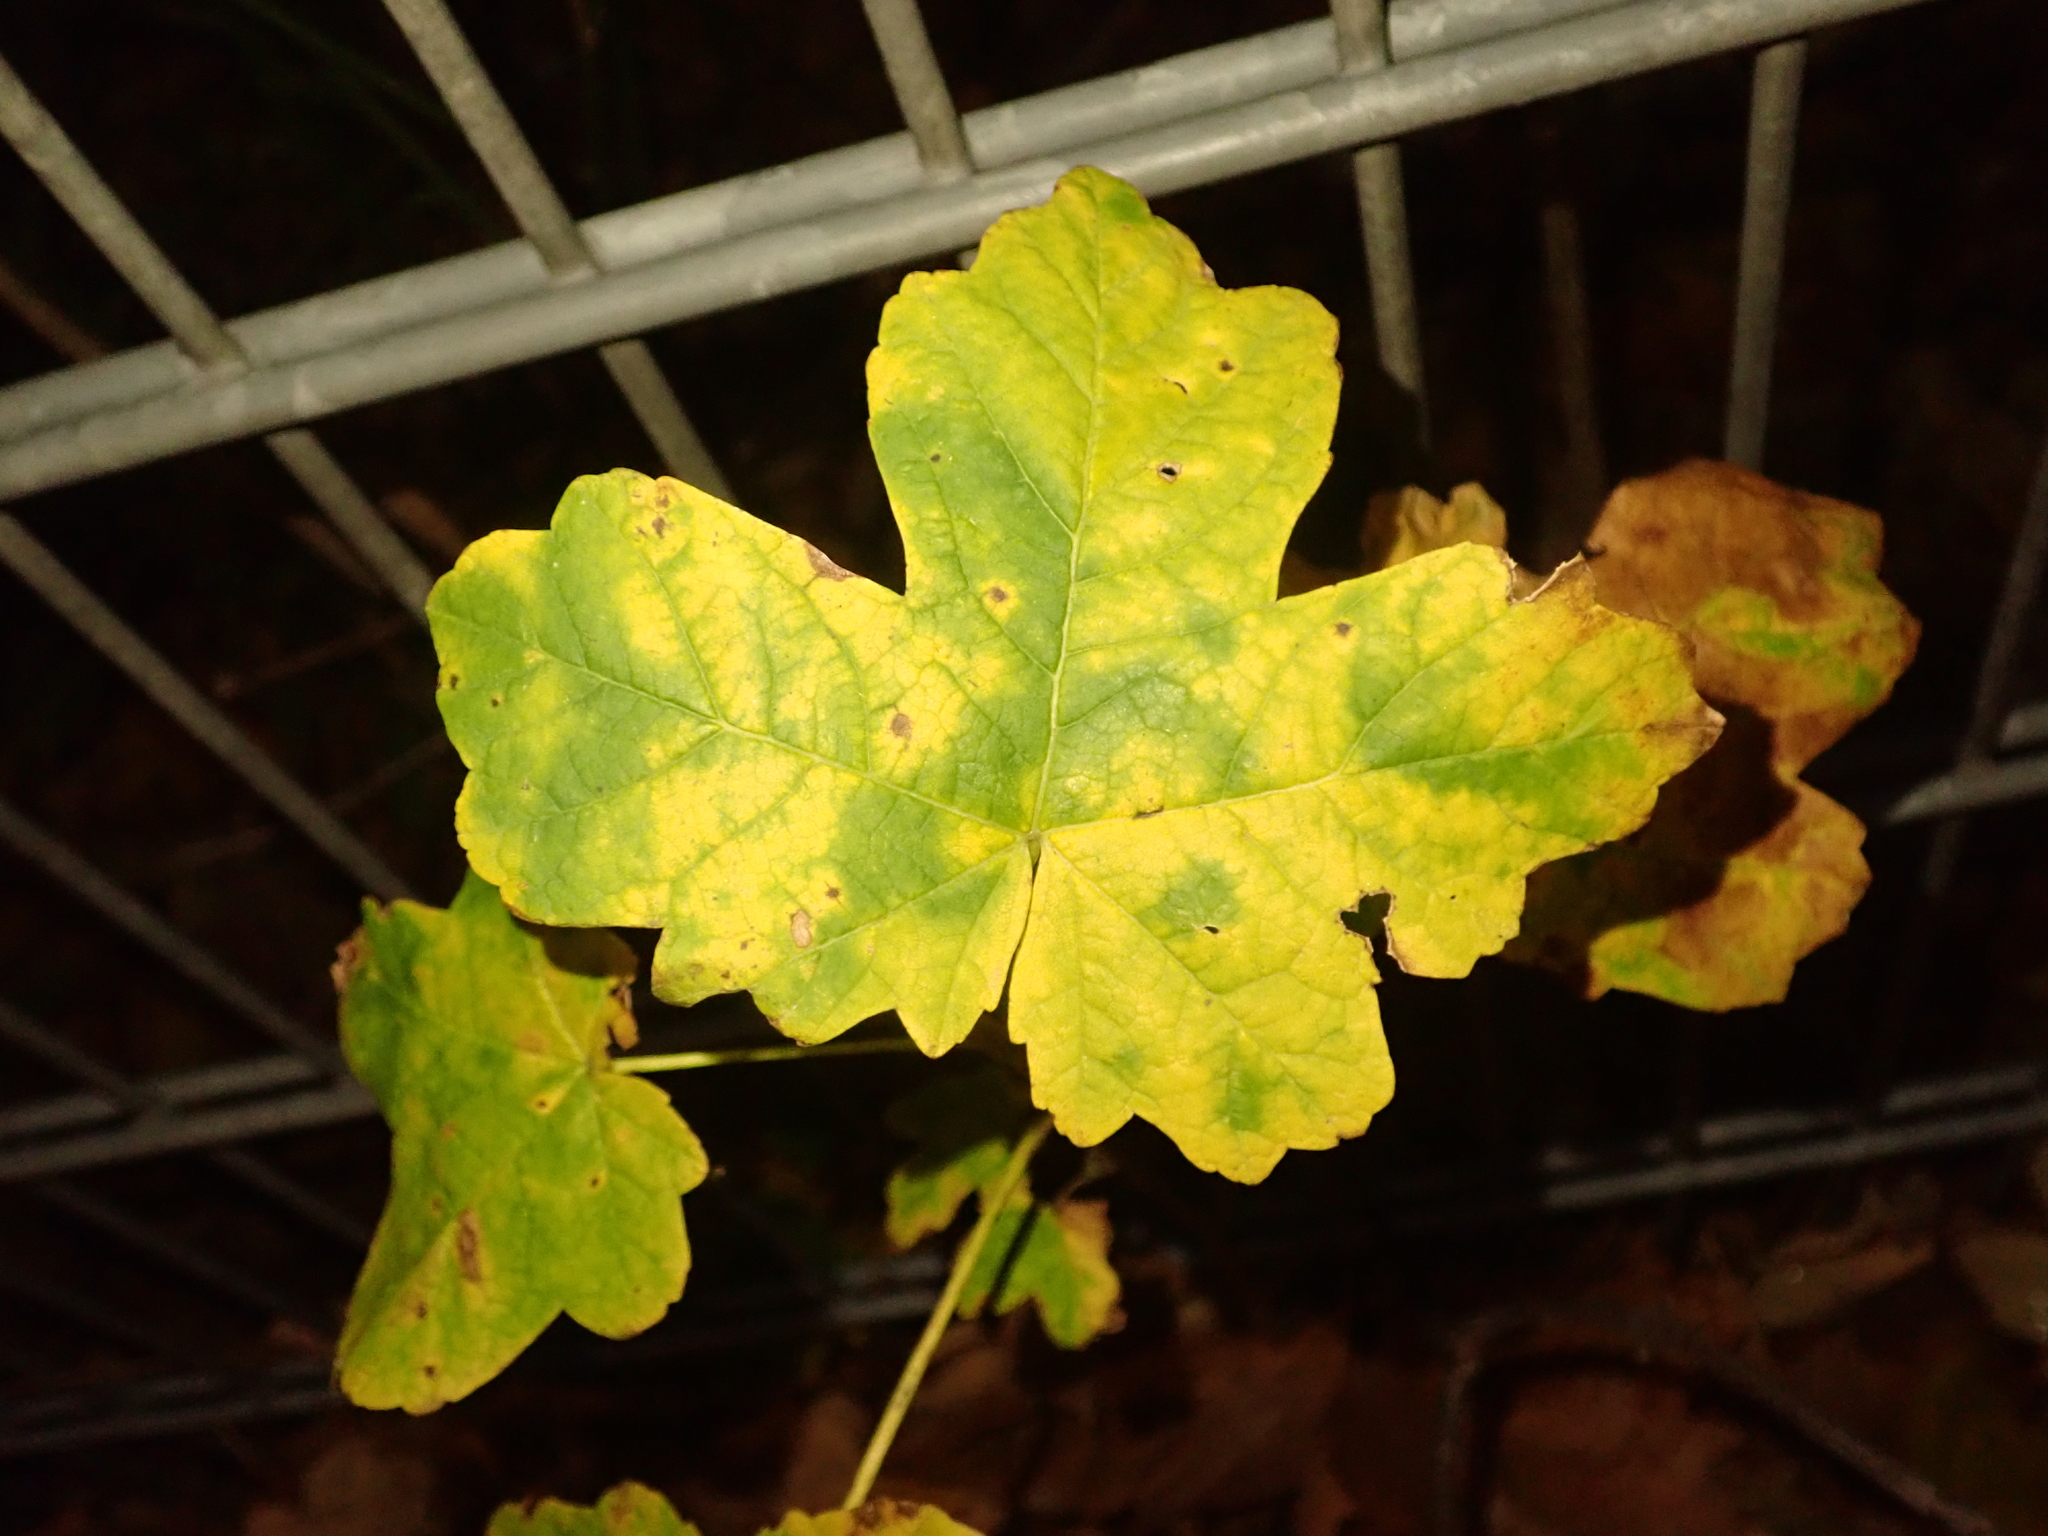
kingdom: Plantae
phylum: Tracheophyta
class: Magnoliopsida
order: Sapindales
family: Sapindaceae
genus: Acer
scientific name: Acer pseudoplatanus
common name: Sycamore
